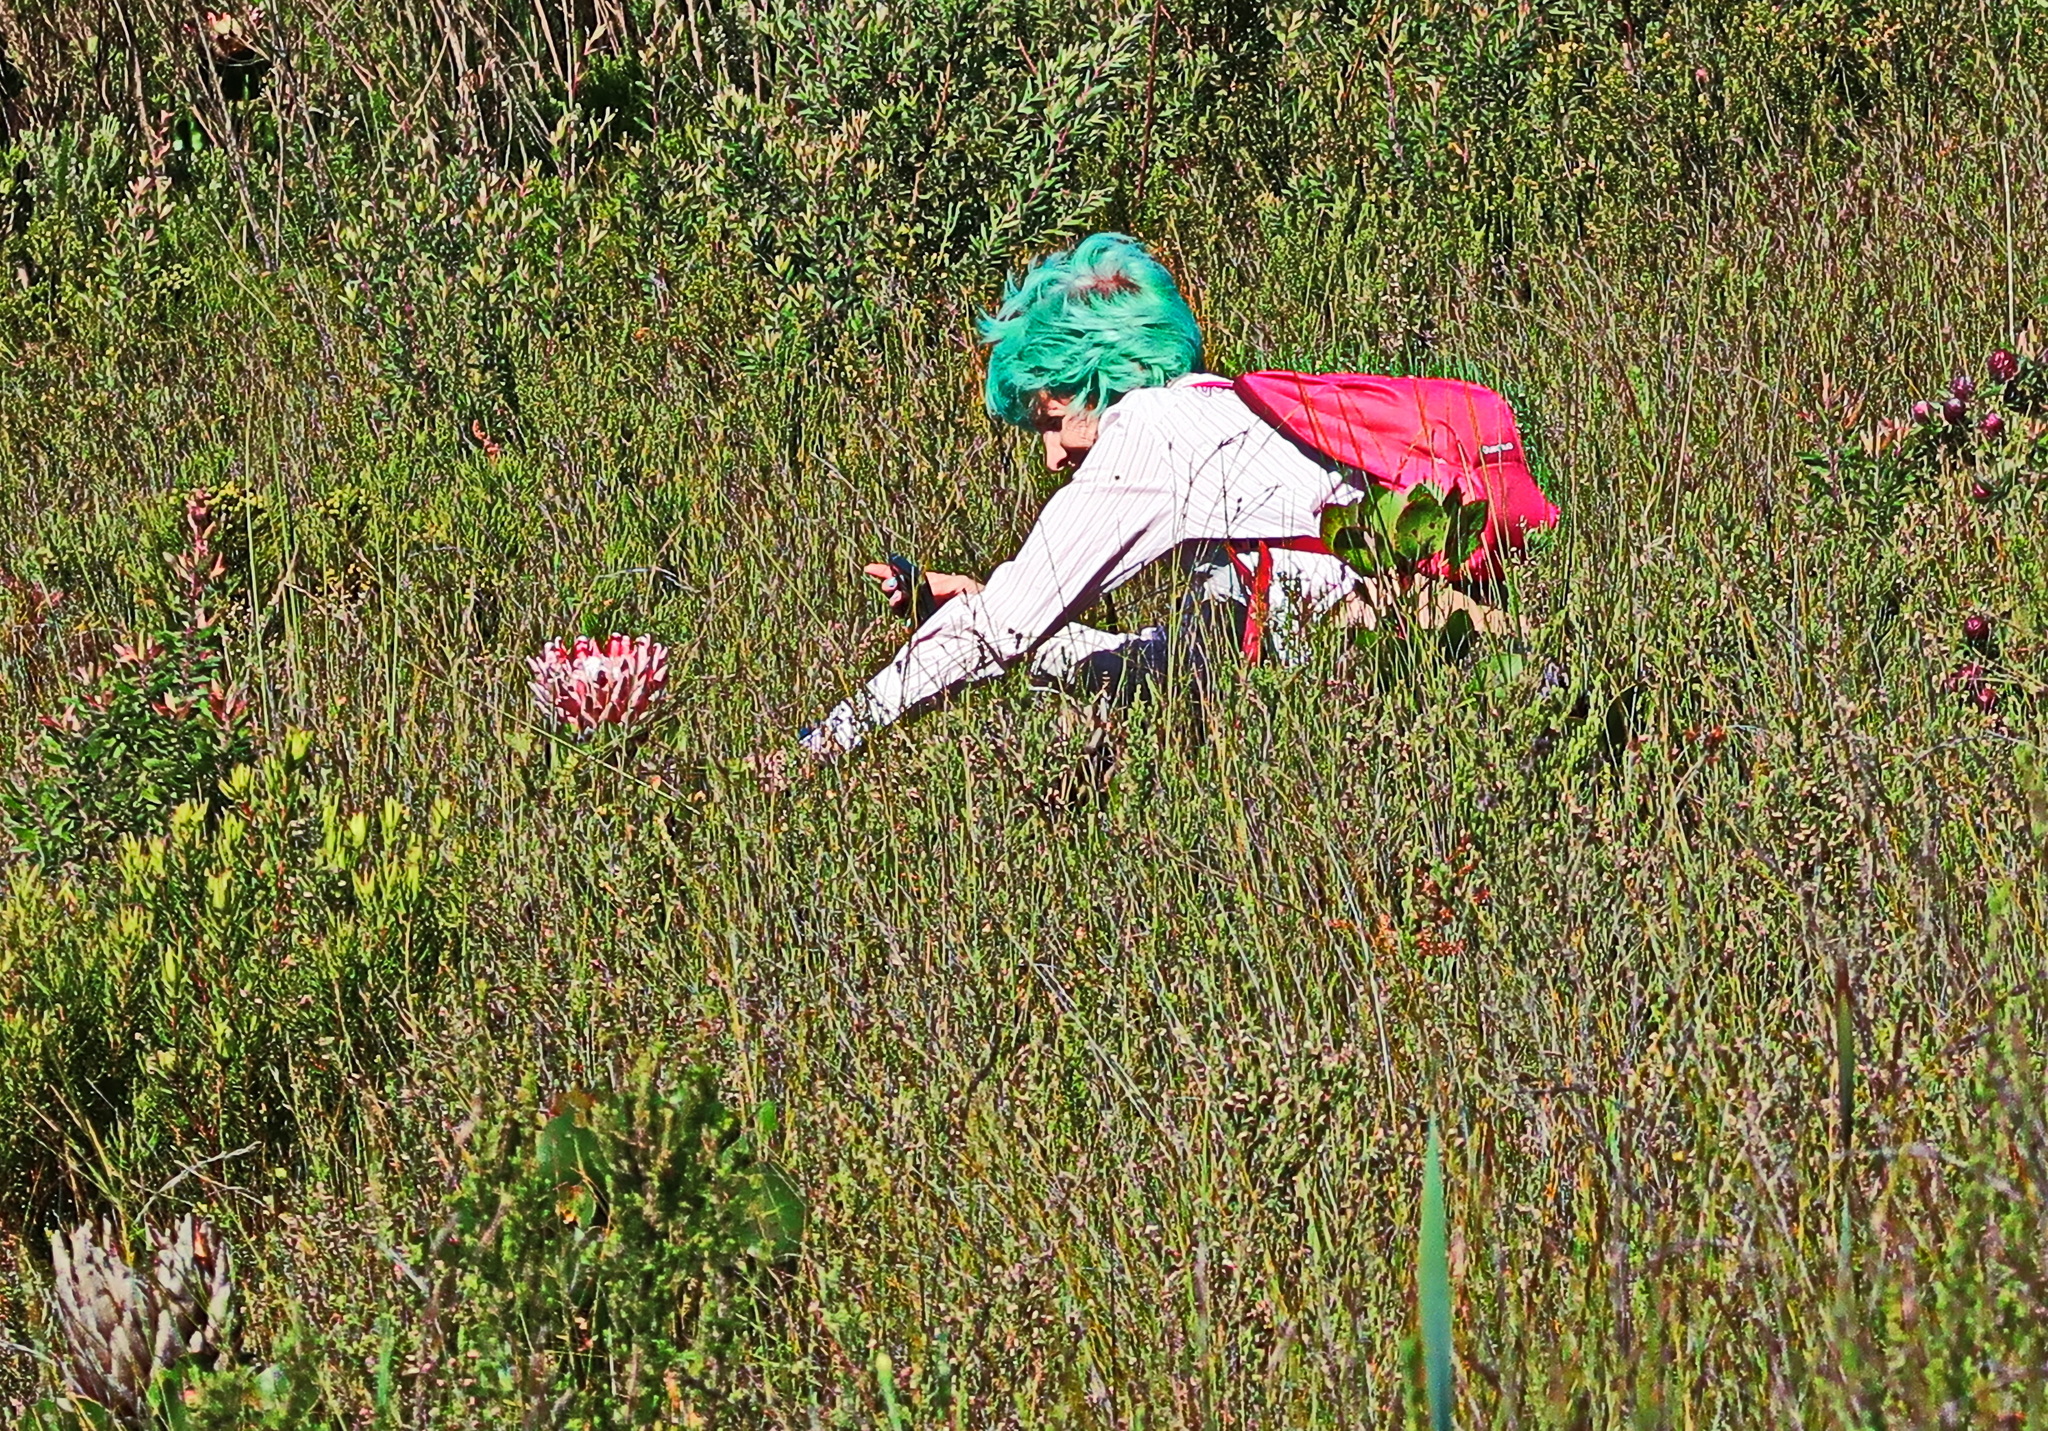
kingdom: Plantae
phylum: Tracheophyta
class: Magnoliopsida
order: Proteales
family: Proteaceae
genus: Protea
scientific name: Protea cynaroides
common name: King protea
